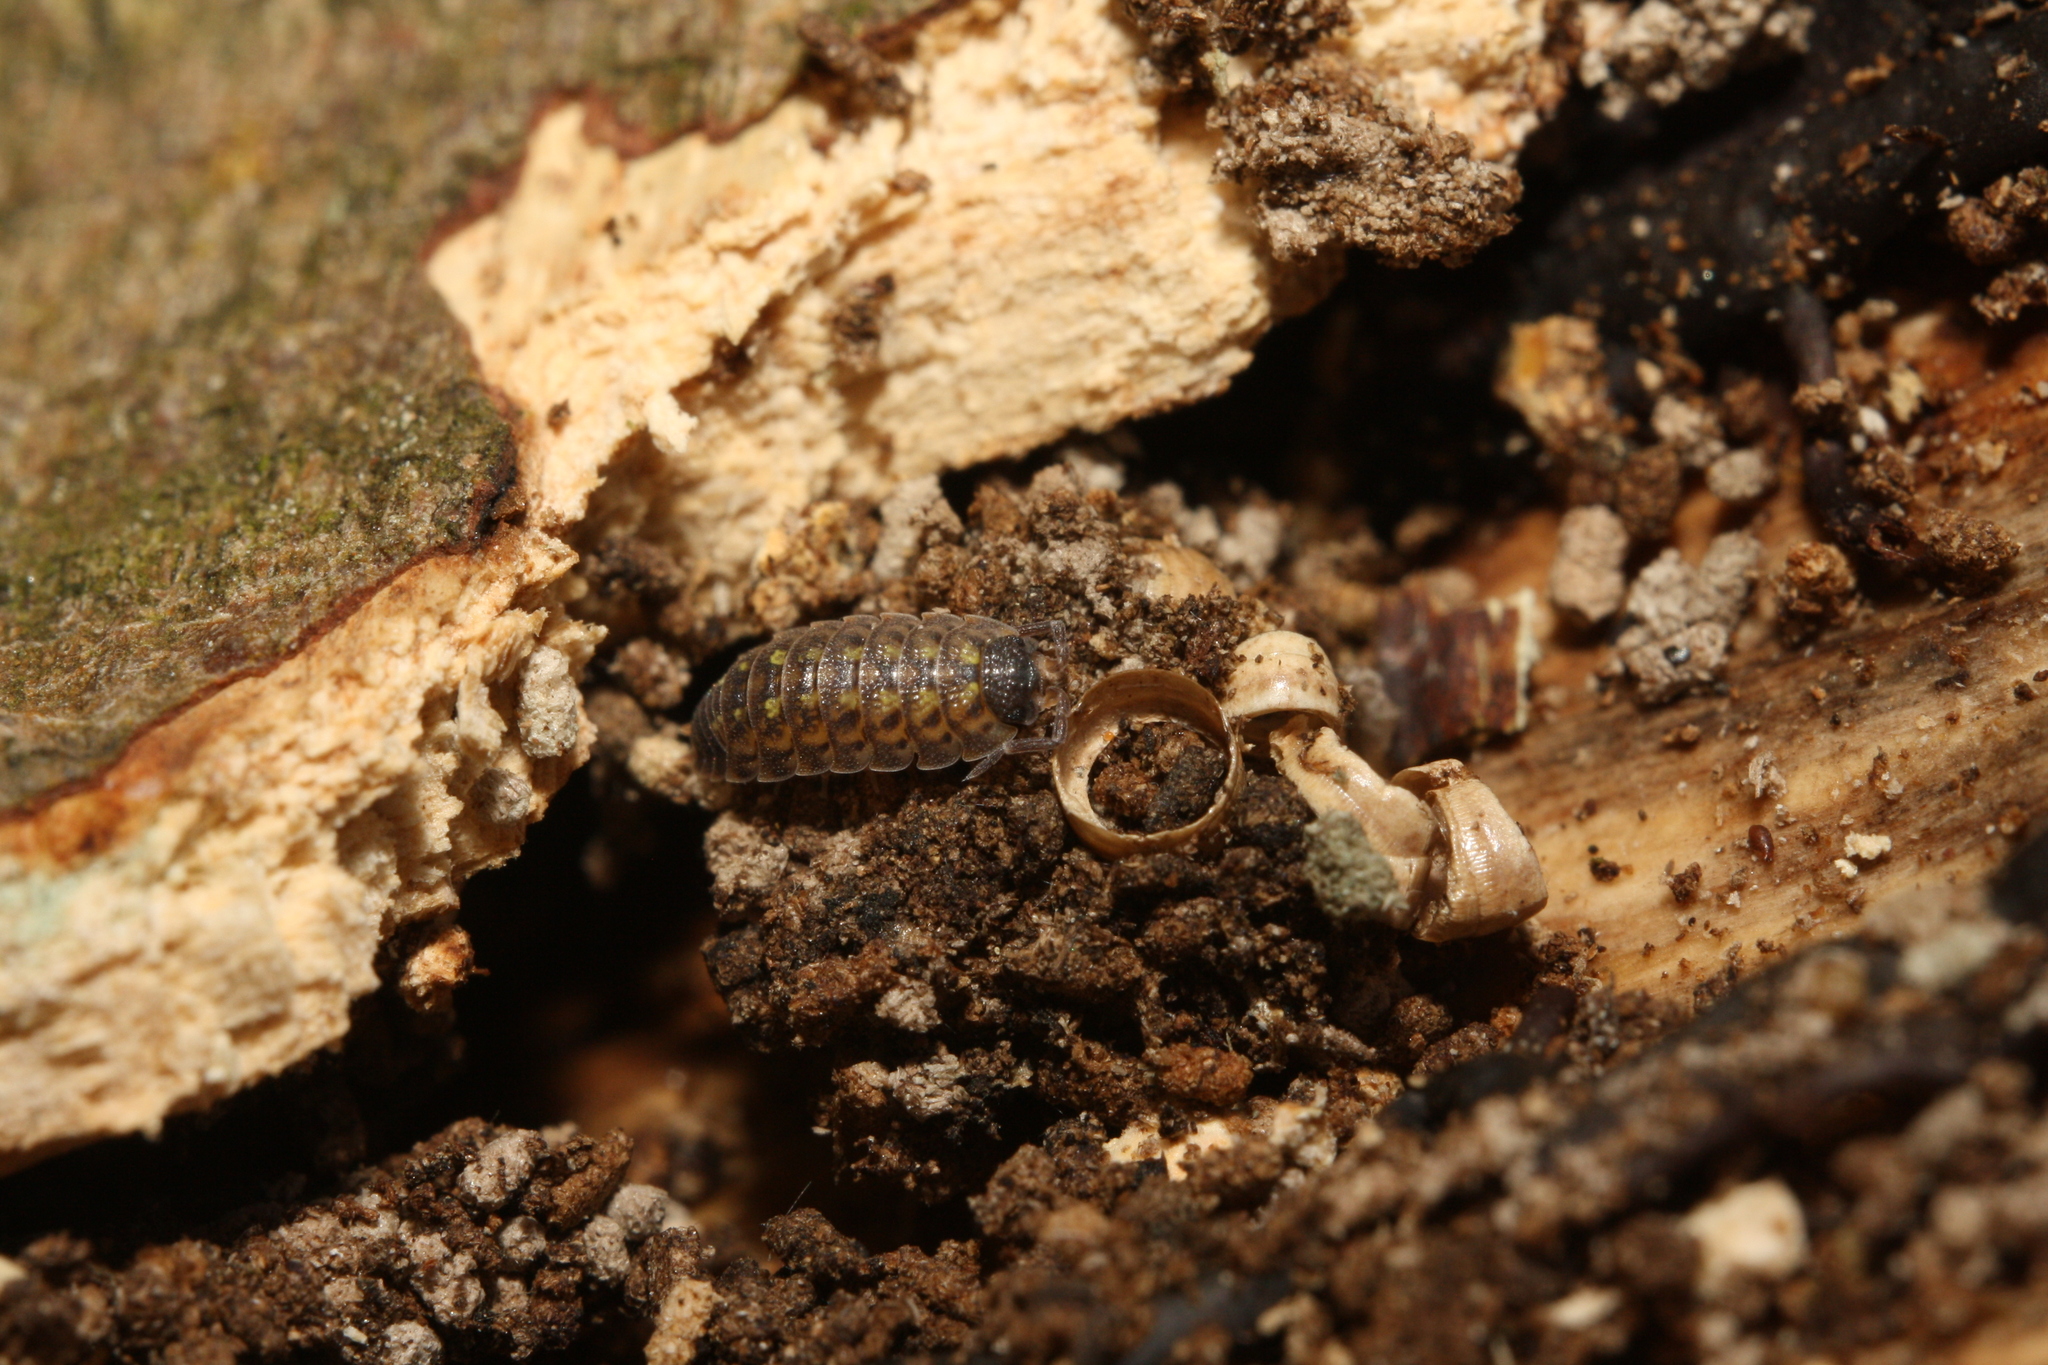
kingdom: Animalia
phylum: Arthropoda
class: Malacostraca
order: Isopoda
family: Porcellionidae
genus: Porcellio
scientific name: Porcellio spinicornis
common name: Painted woodlouse
